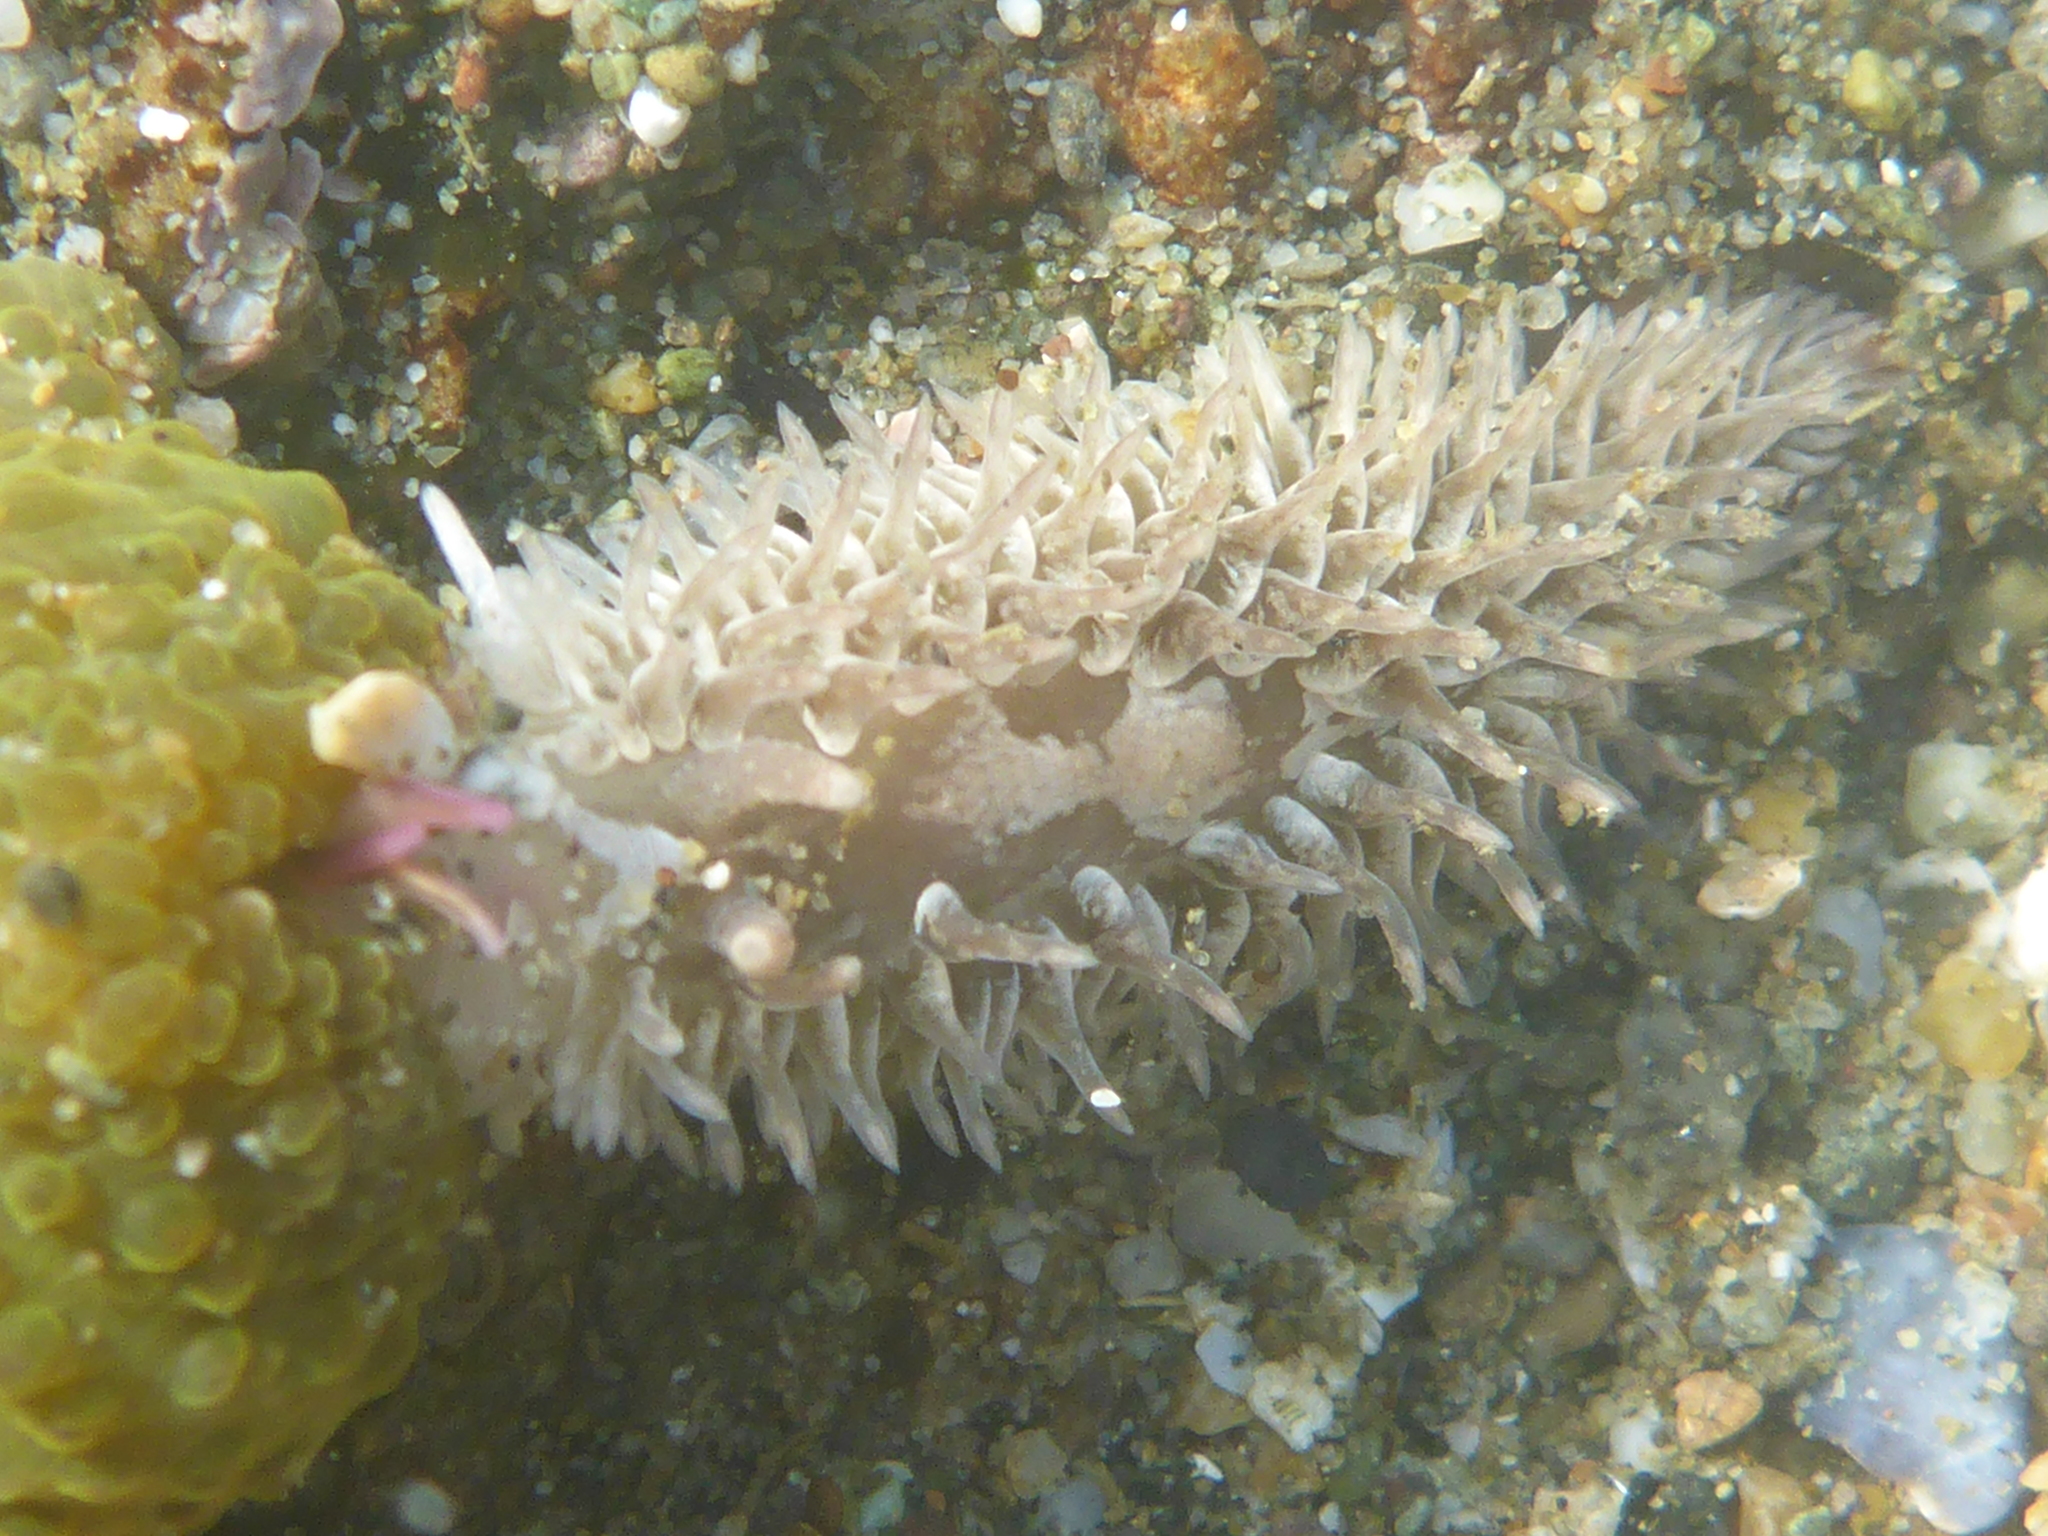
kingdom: Animalia
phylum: Mollusca
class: Gastropoda
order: Nudibranchia
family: Aeolidiidae
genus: Aeolidia
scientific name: Aeolidia loui
